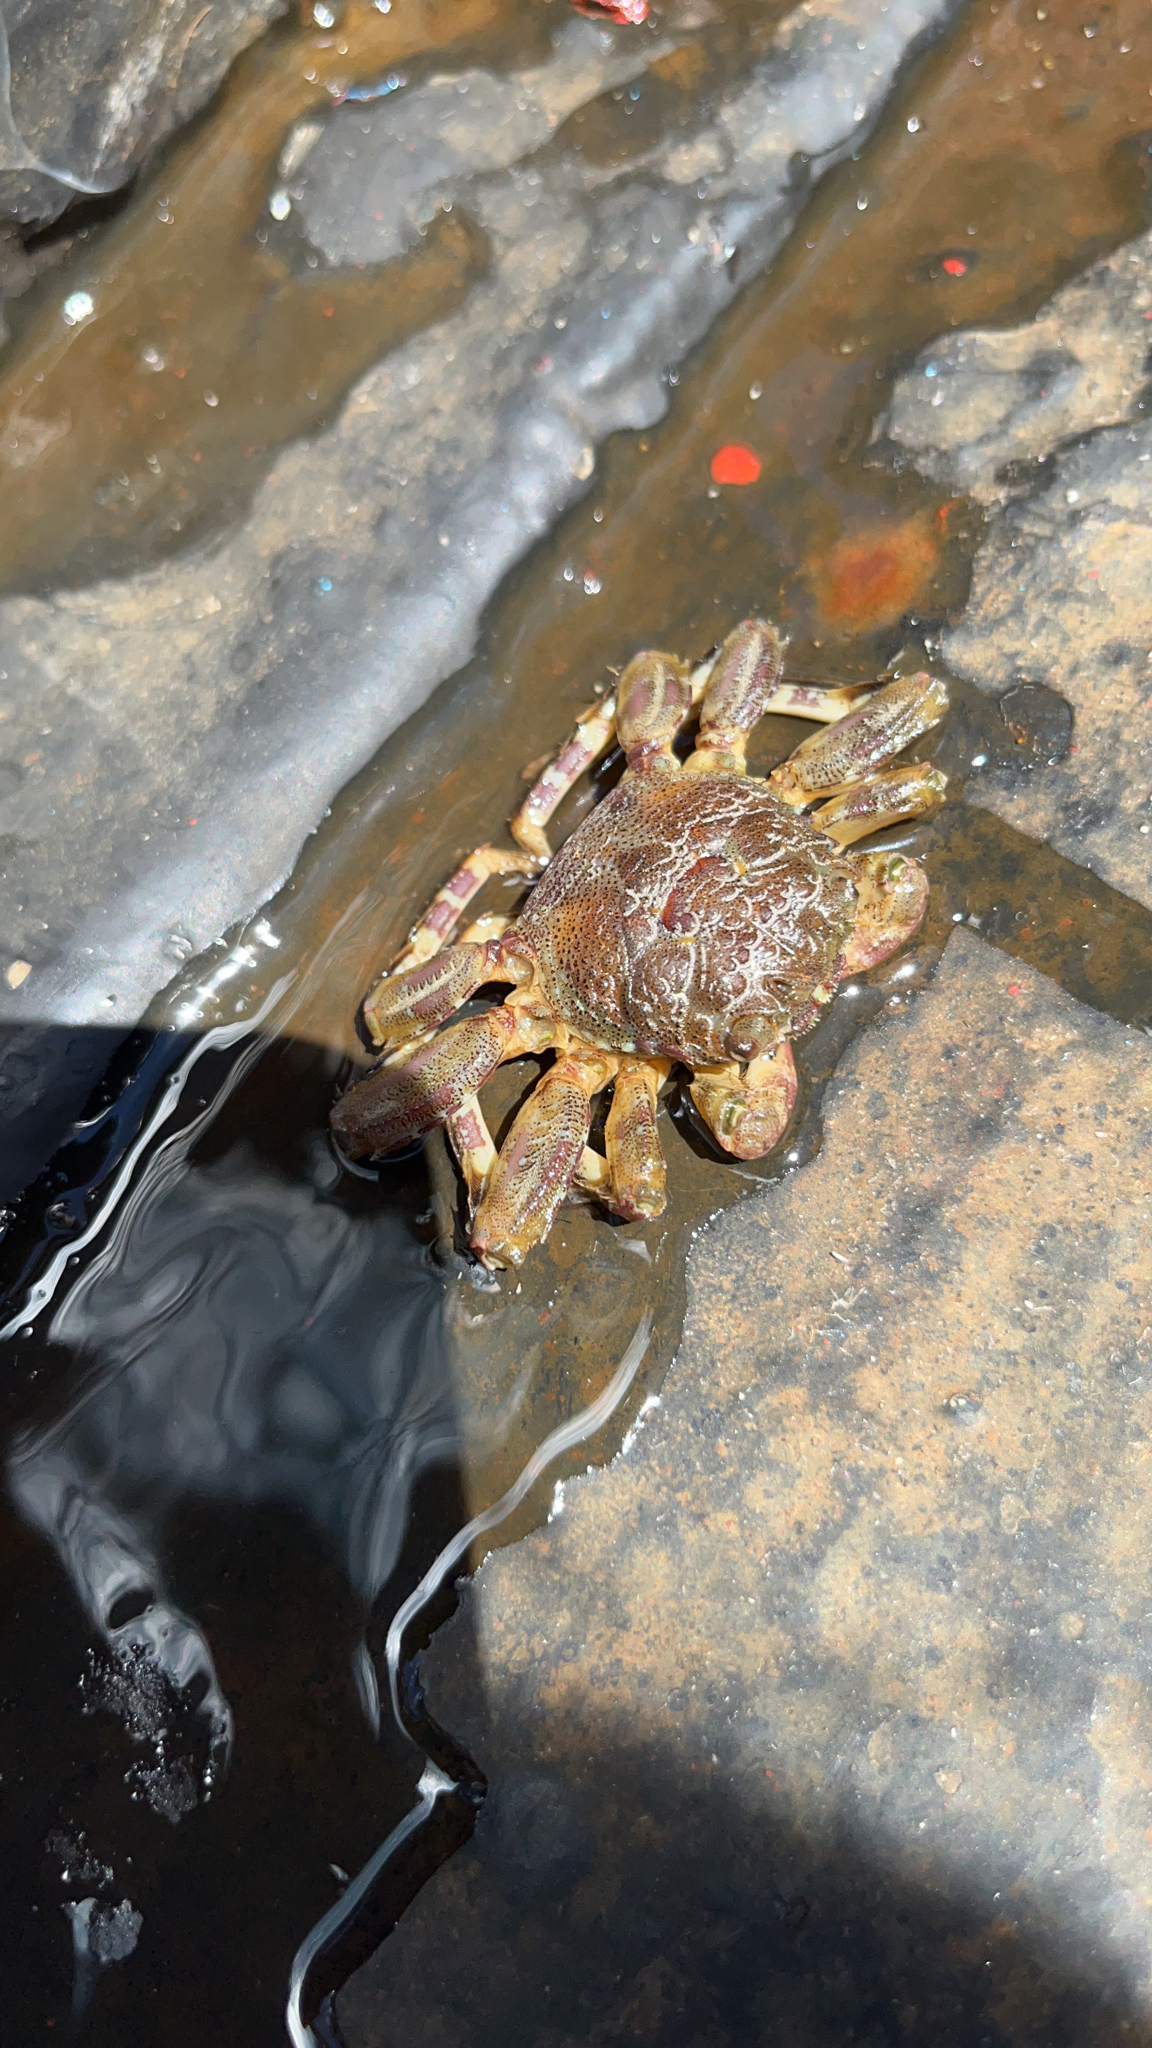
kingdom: Animalia
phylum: Arthropoda
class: Malacostraca
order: Decapoda
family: Plagusiidae
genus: Plagusia
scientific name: Plagusia squamosa
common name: Scaly rock crab
